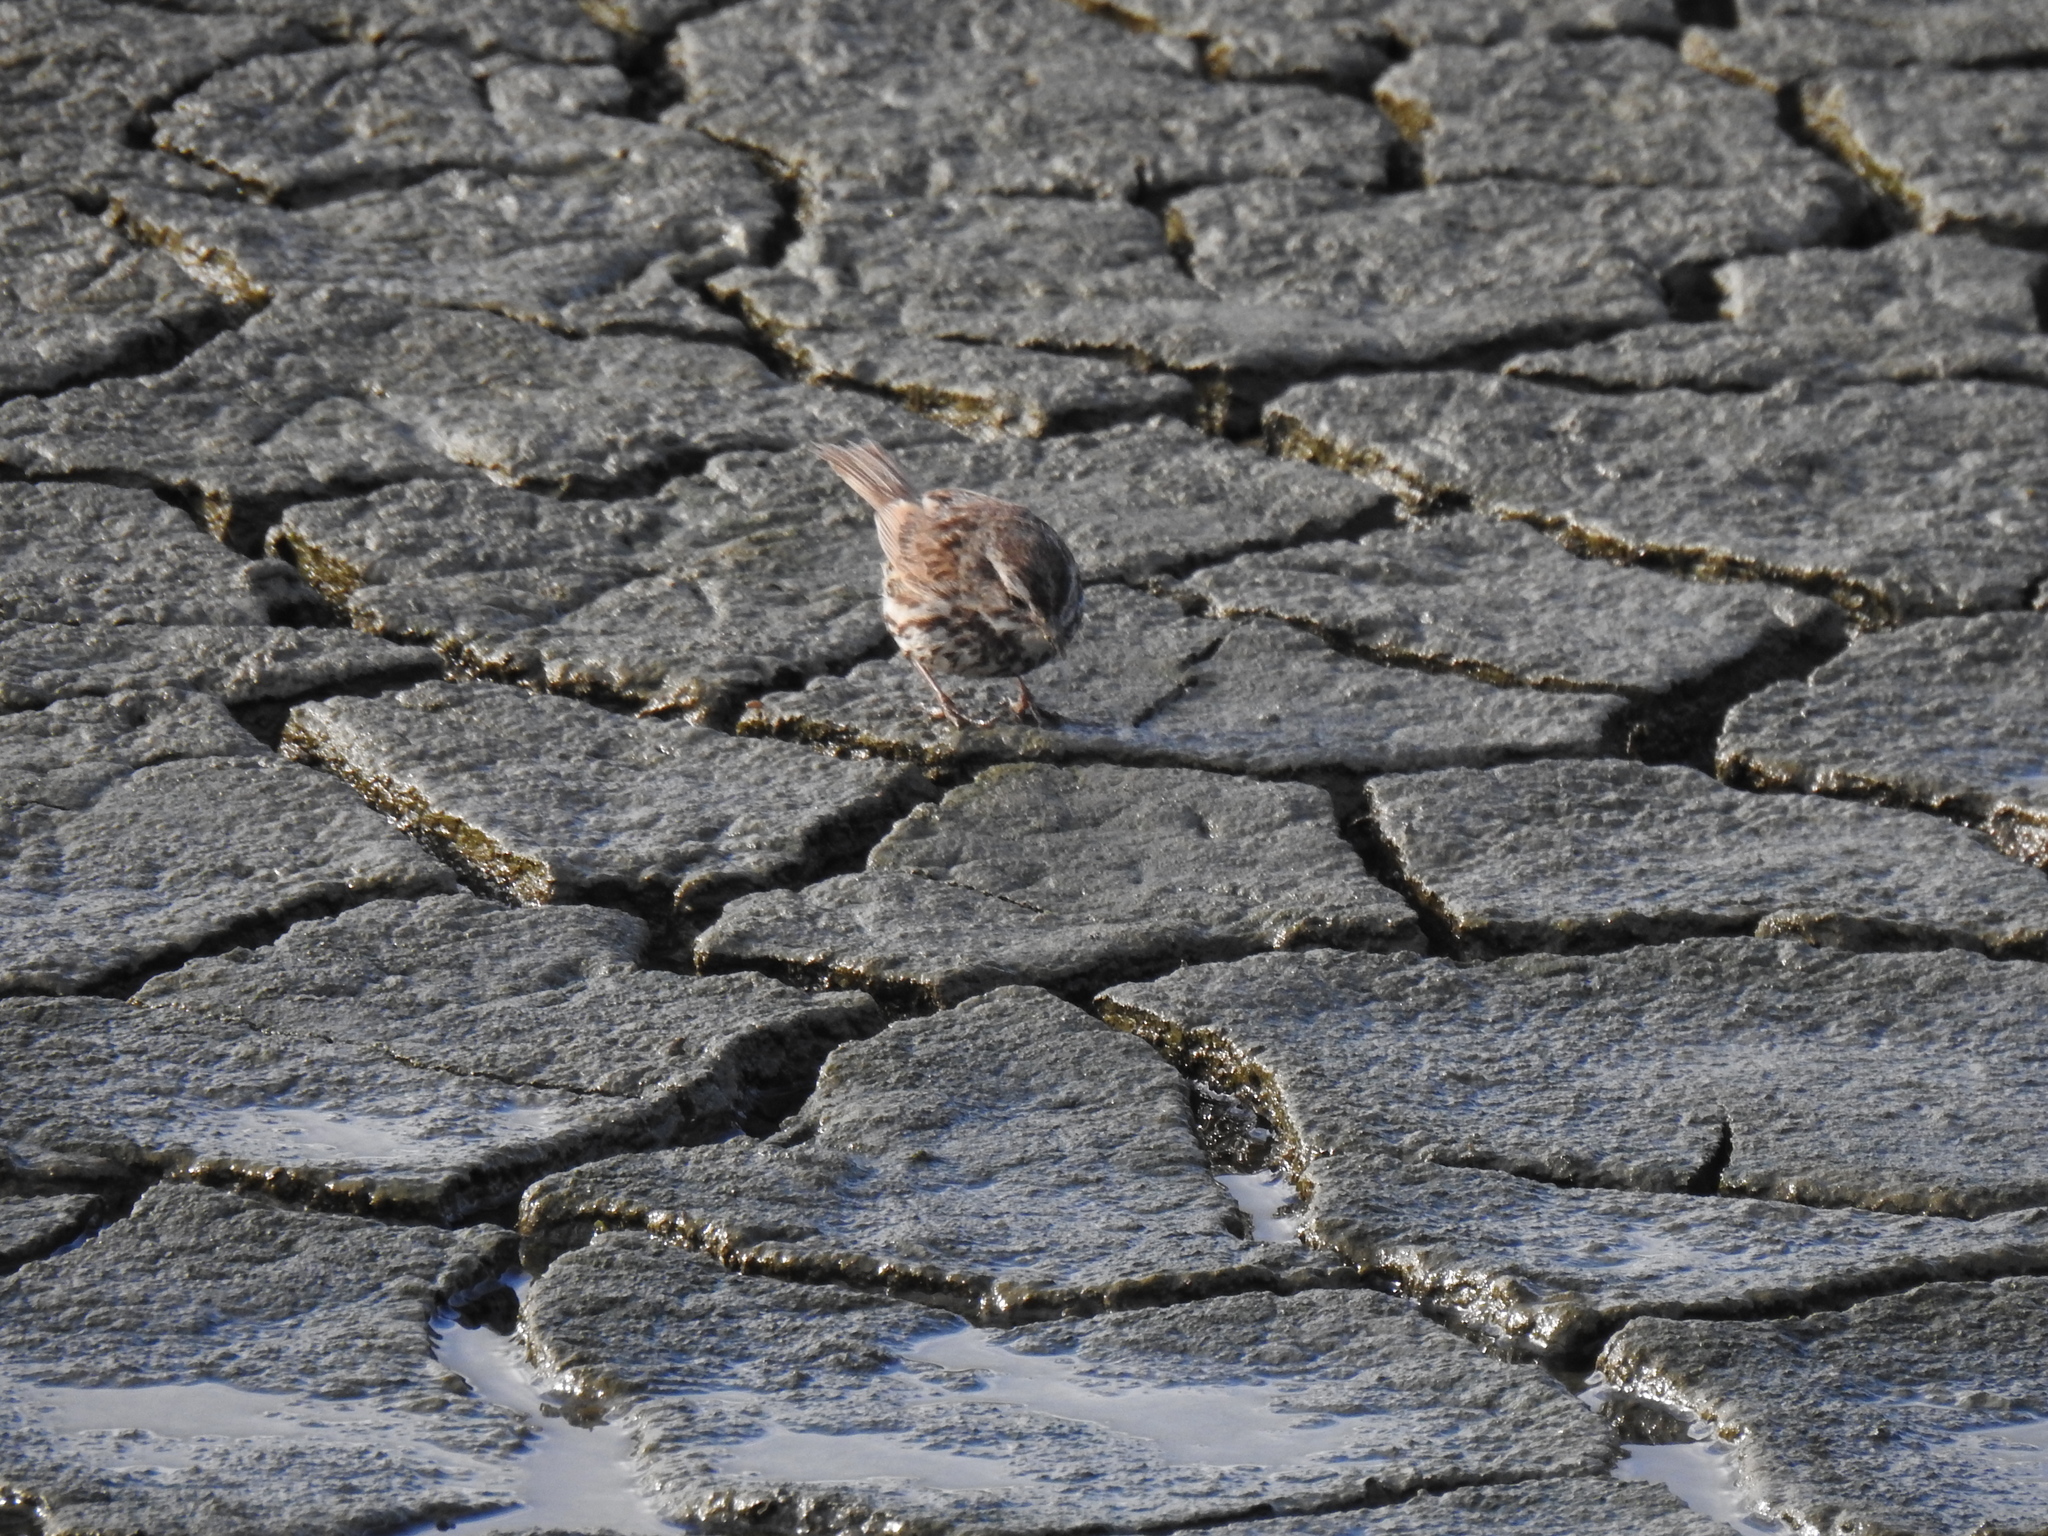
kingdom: Animalia
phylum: Chordata
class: Aves
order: Passeriformes
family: Passerellidae
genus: Melospiza
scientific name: Melospiza melodia
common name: Song sparrow
